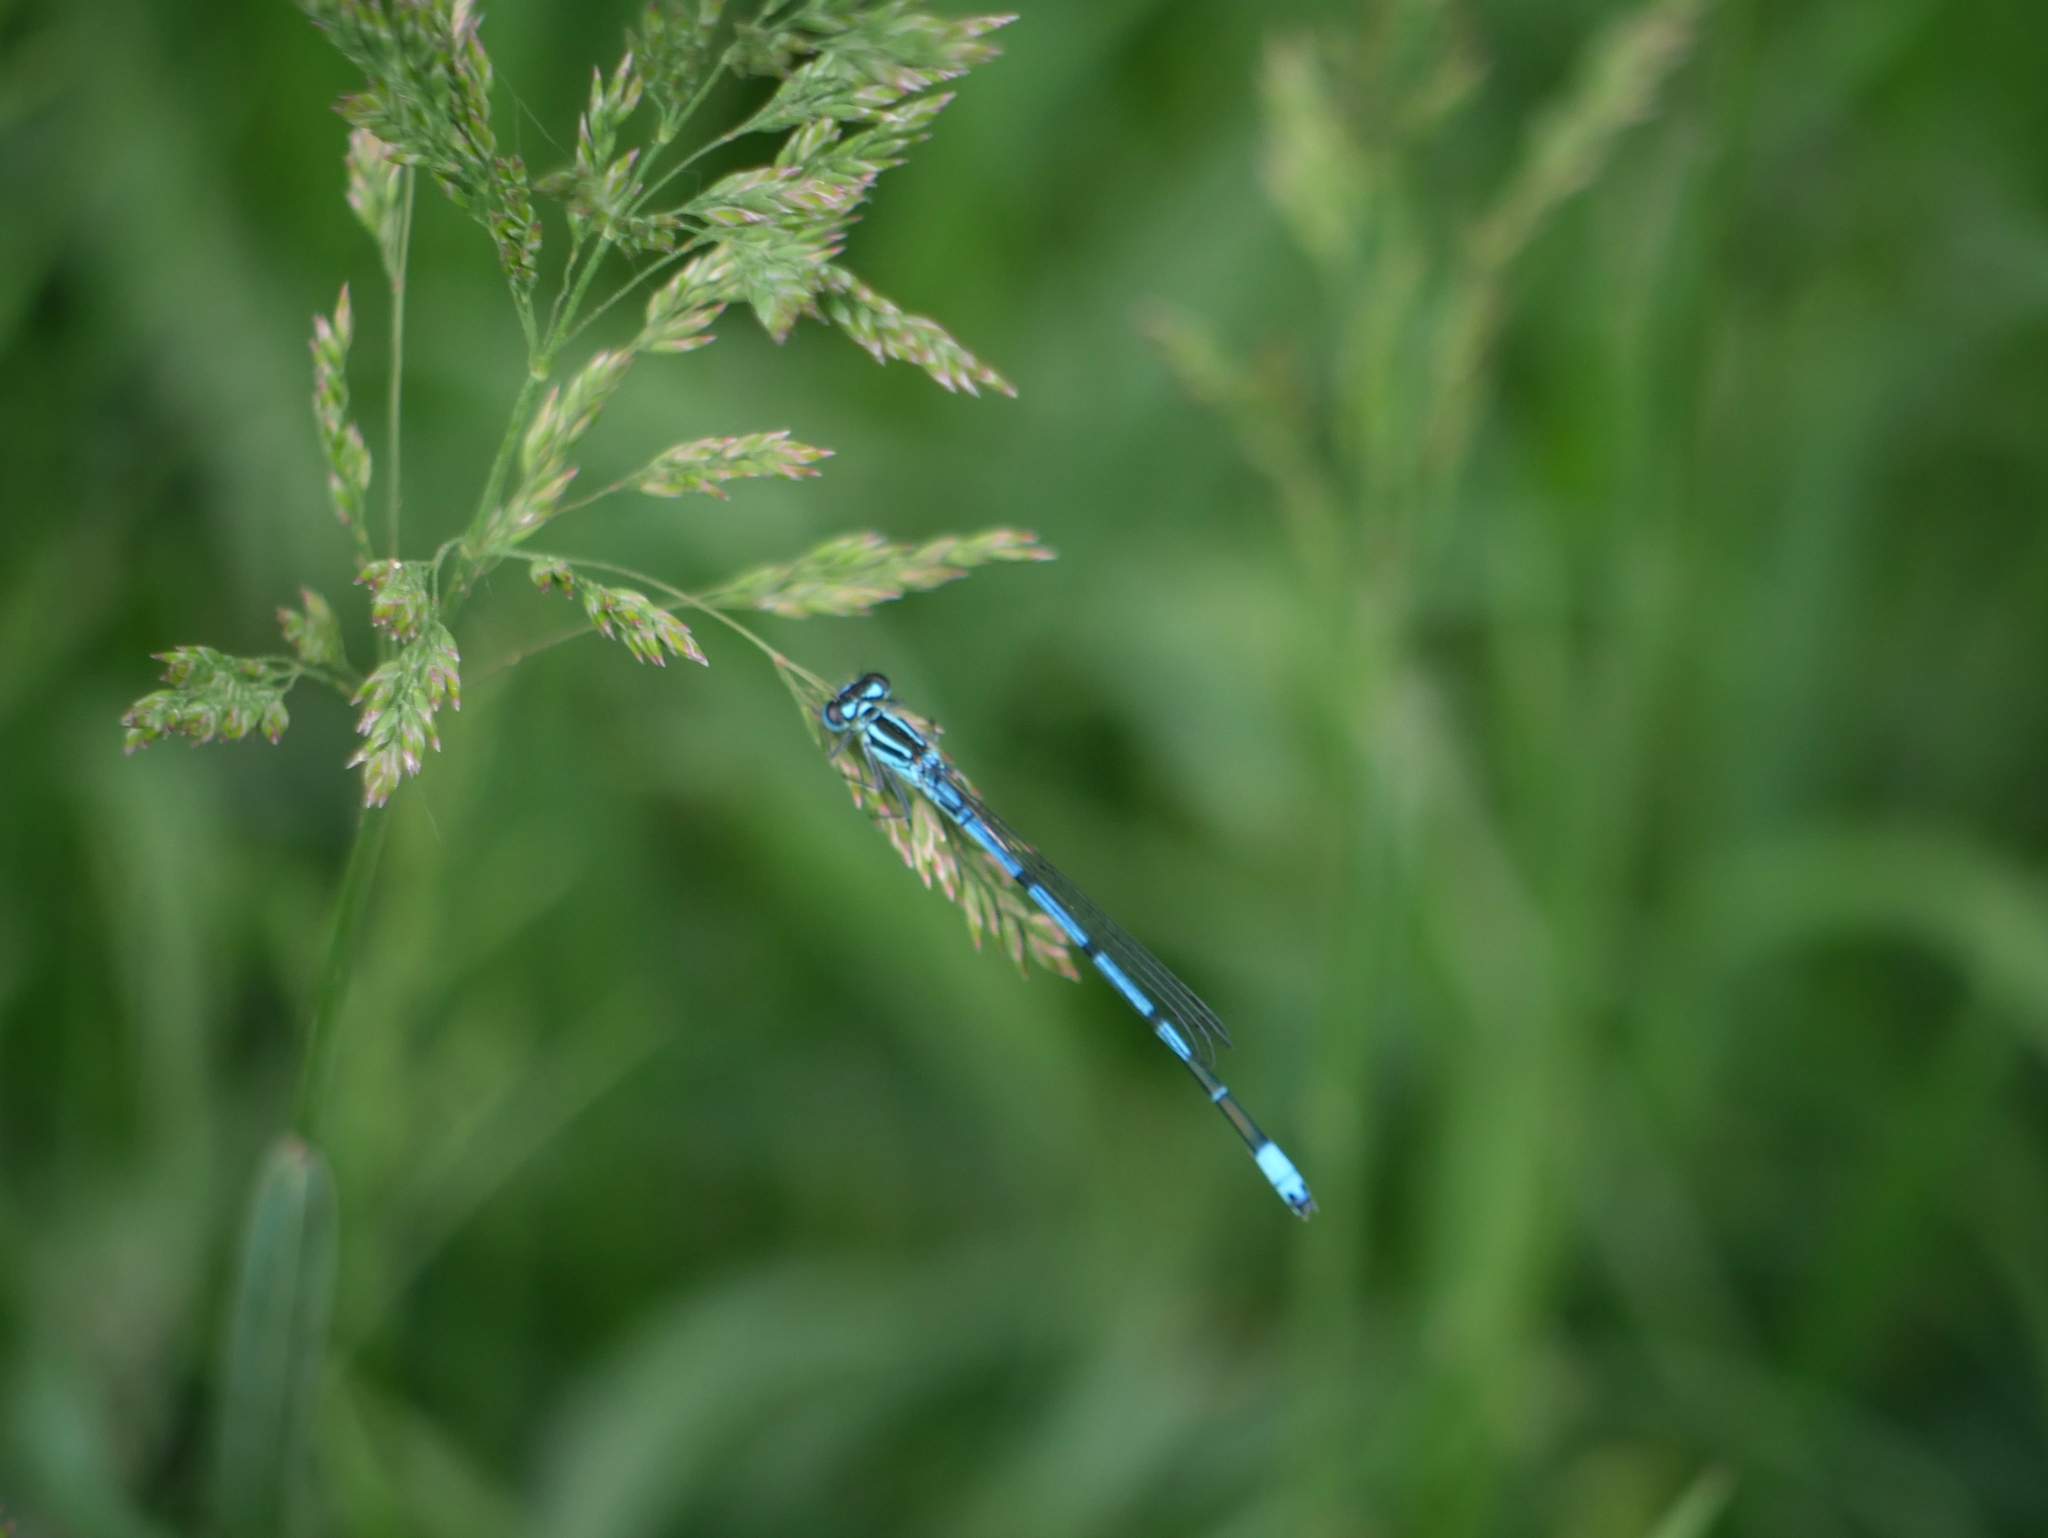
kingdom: Animalia
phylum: Arthropoda
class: Insecta
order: Odonata
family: Coenagrionidae
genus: Coenagrion
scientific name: Coenagrion puella
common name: Azure damselfly
